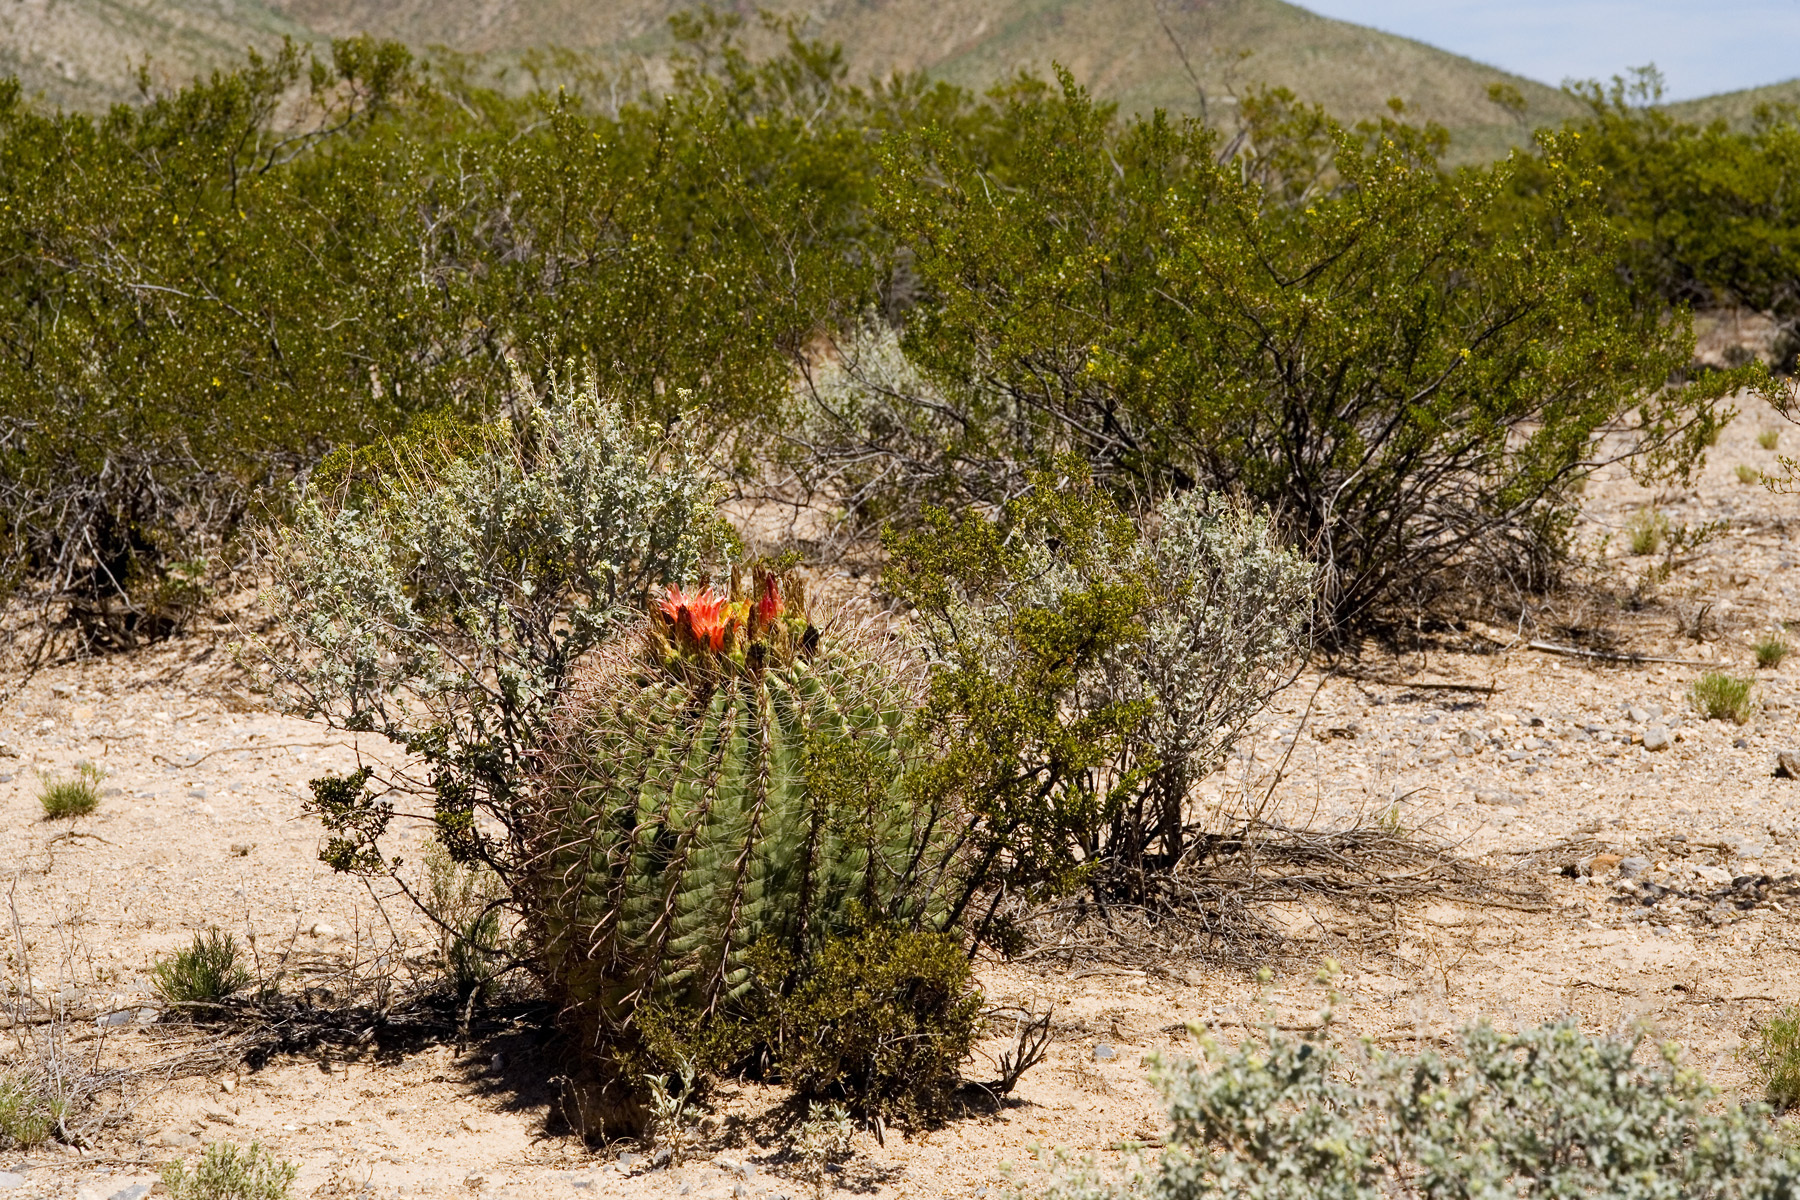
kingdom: Plantae
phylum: Tracheophyta
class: Magnoliopsida
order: Caryophyllales
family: Cactaceae
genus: Ferocactus
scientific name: Ferocactus wislizeni
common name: Candy barrel cactus
